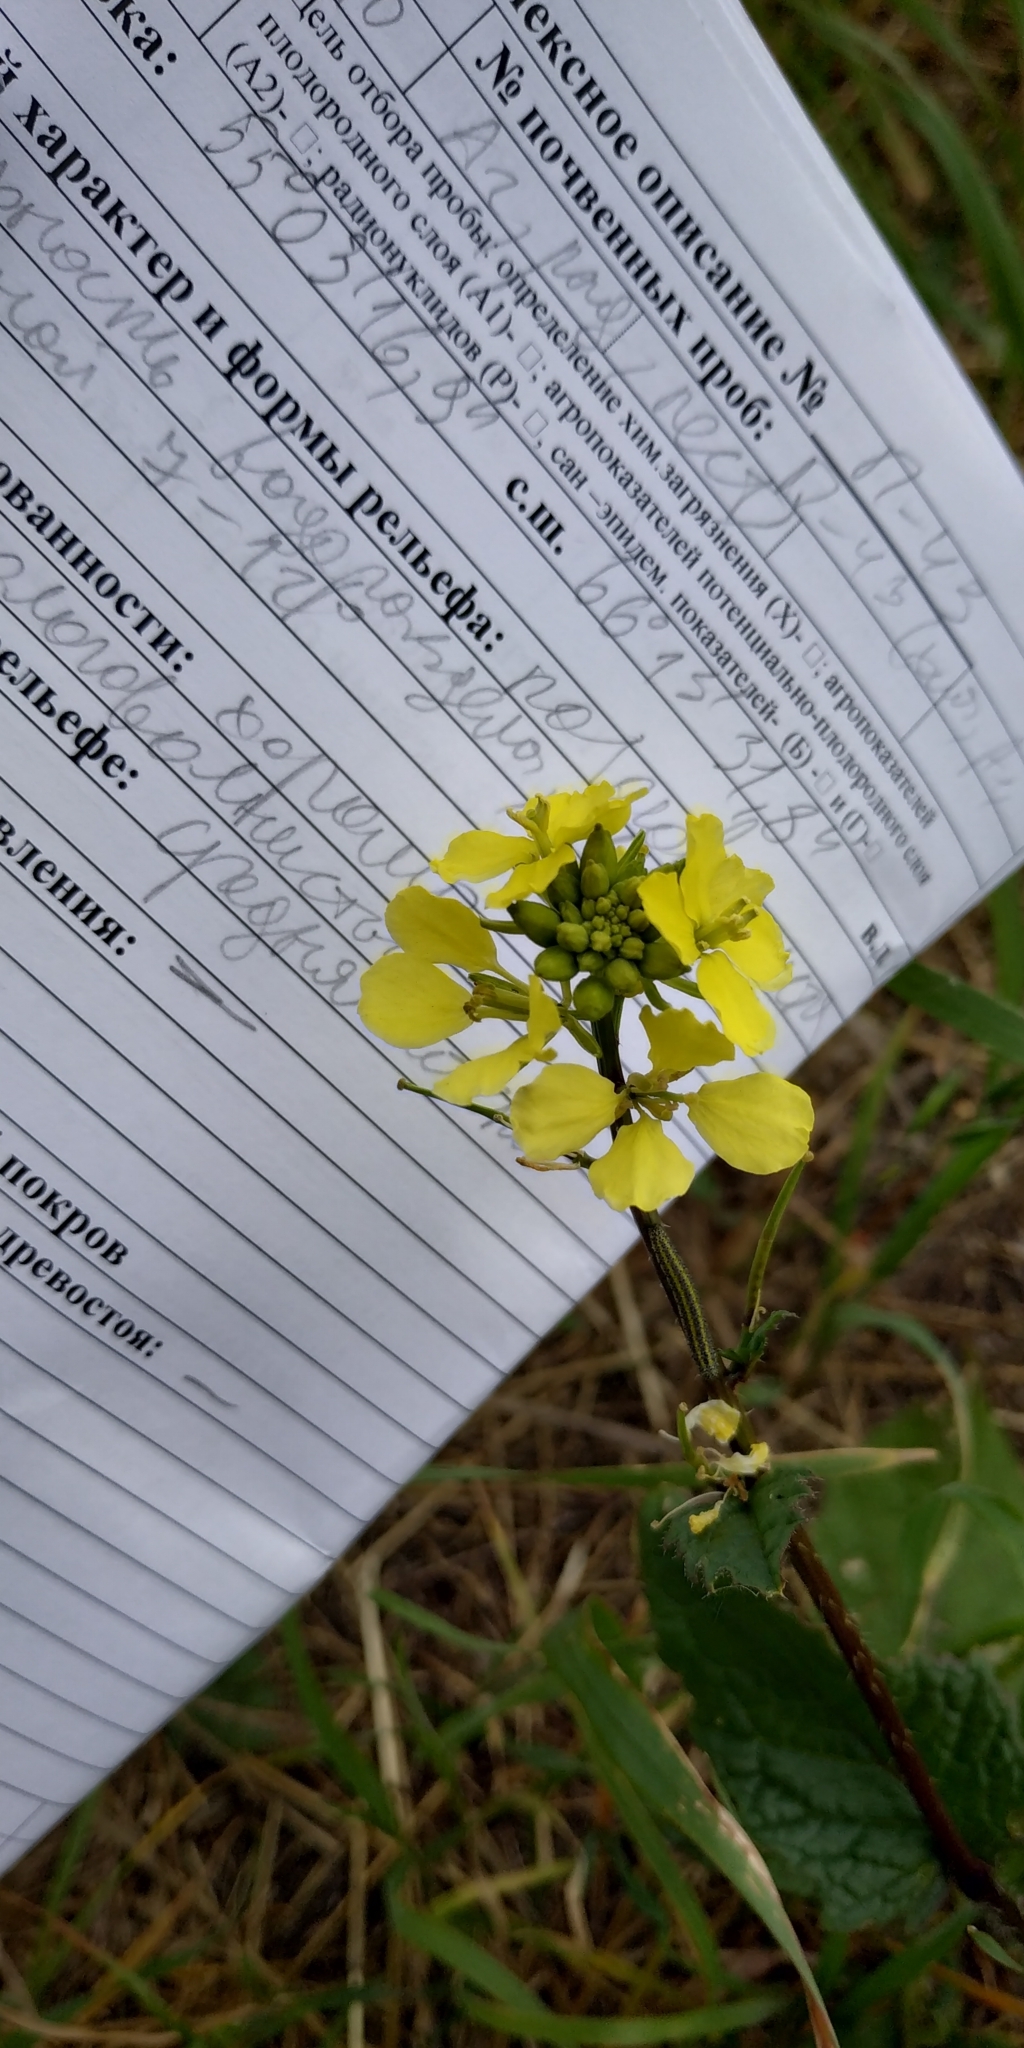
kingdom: Plantae
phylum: Tracheophyta
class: Magnoliopsida
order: Brassicales
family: Brassicaceae
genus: Sinapis
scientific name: Sinapis arvensis
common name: Charlock
